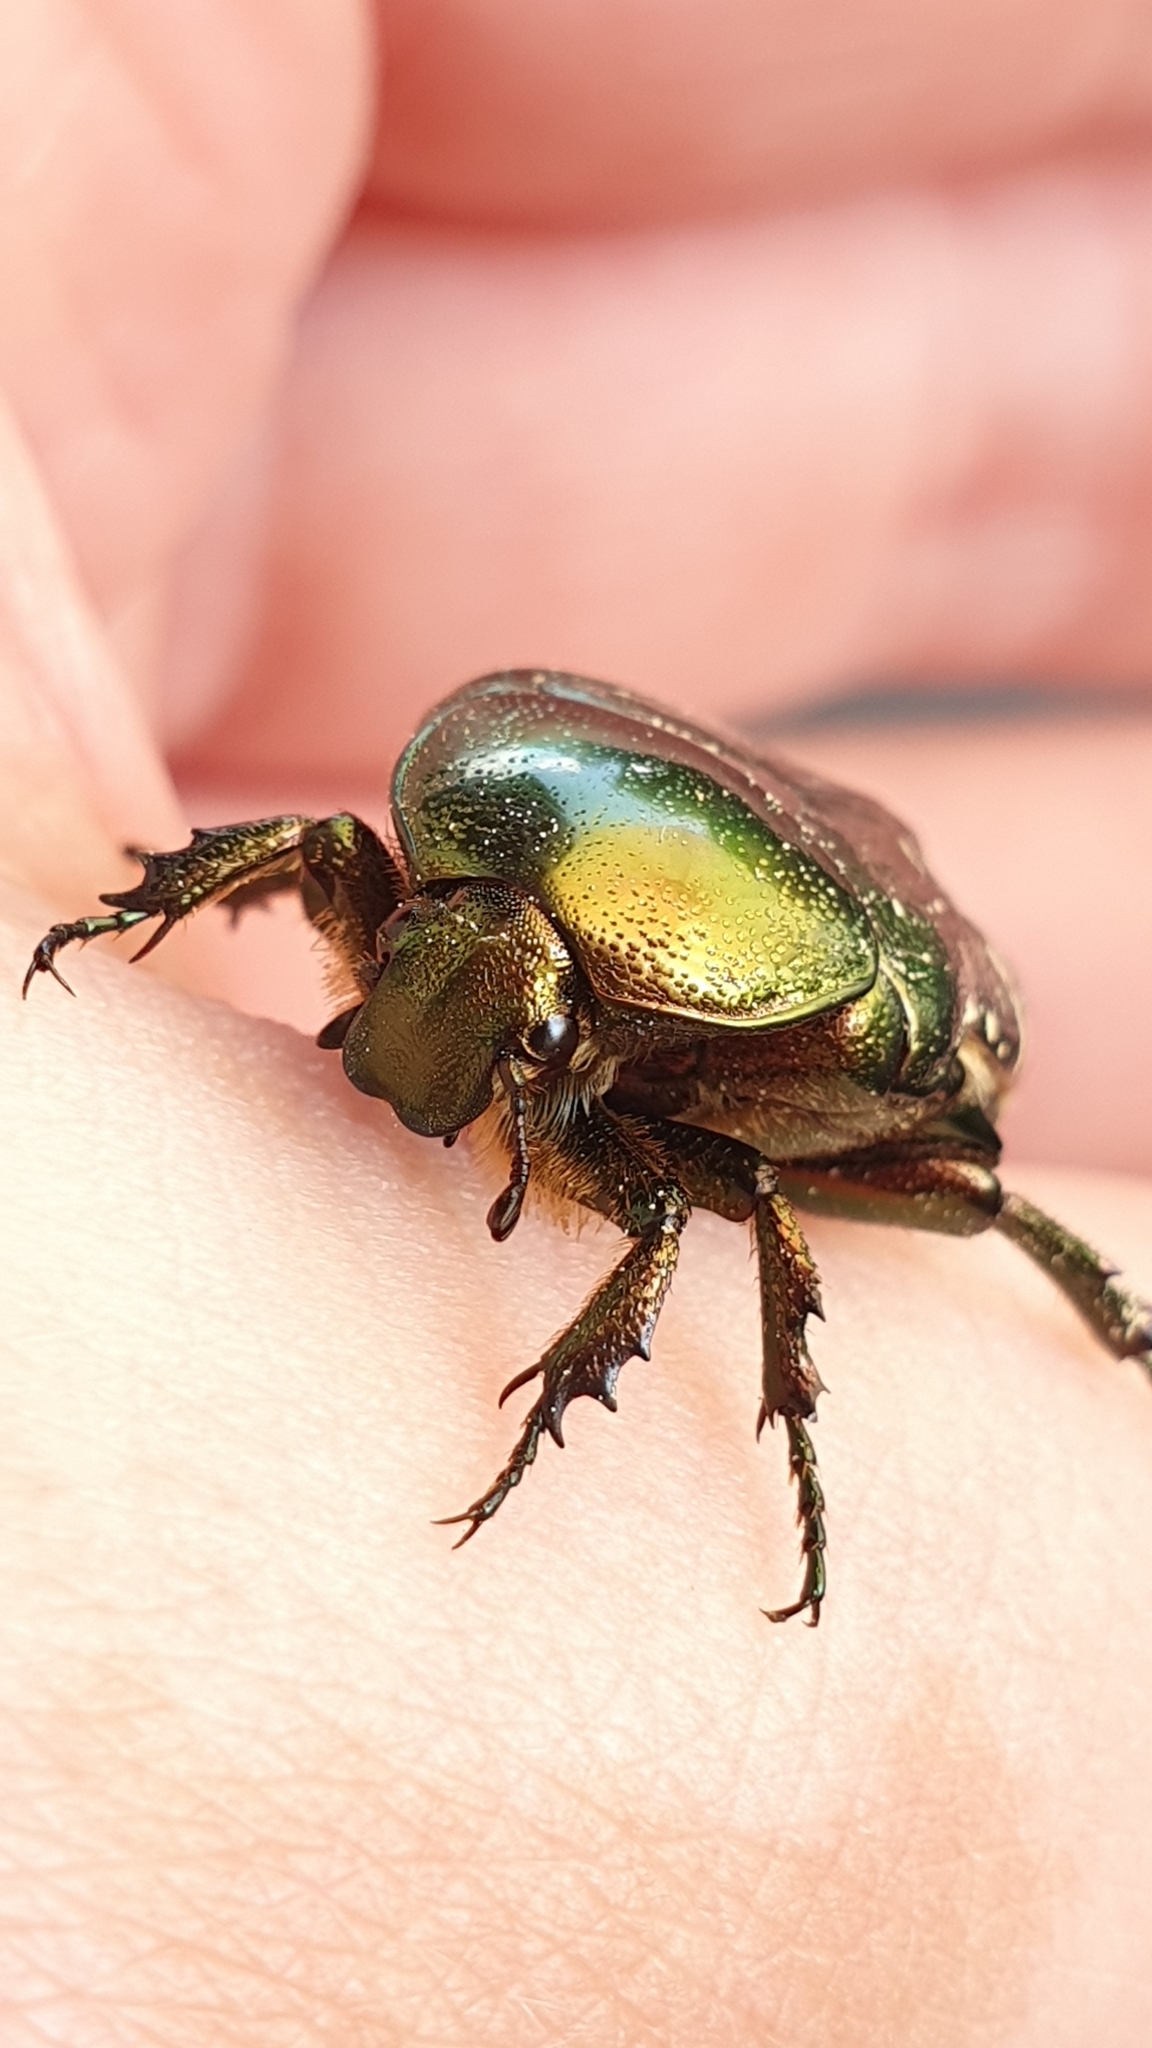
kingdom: Animalia
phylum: Arthropoda
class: Insecta
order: Coleoptera
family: Scarabaeidae
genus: Cetonia
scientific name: Cetonia aurata
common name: Rose chafer
